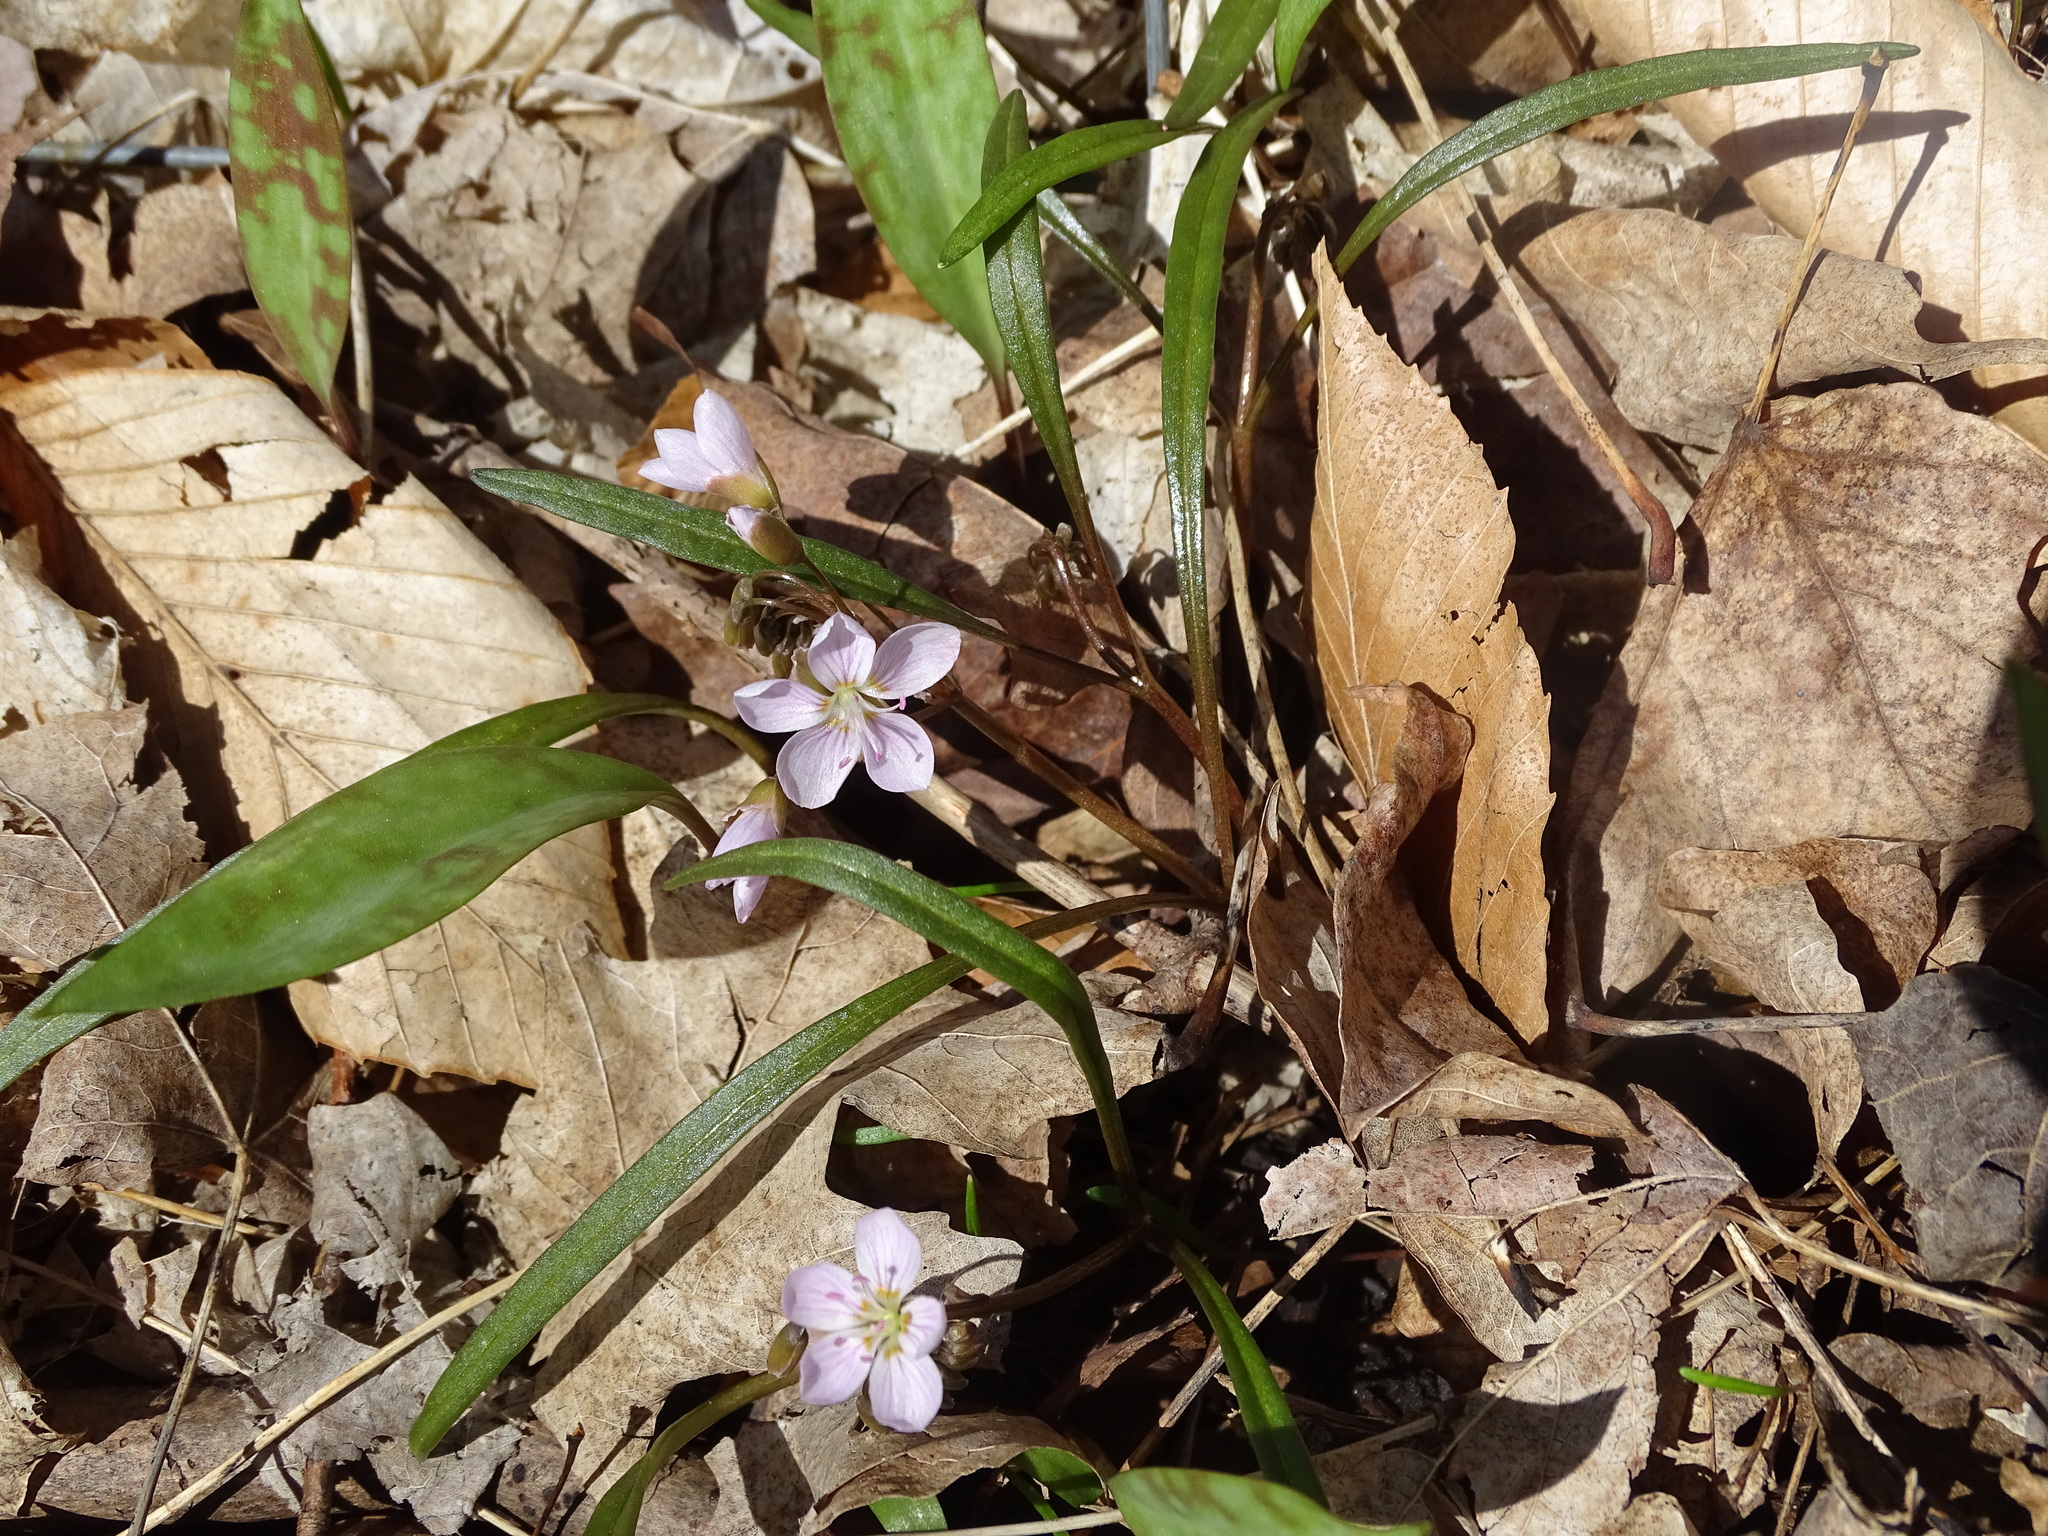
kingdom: Plantae
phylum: Tracheophyta
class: Magnoliopsida
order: Caryophyllales
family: Montiaceae
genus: Claytonia
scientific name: Claytonia virginica
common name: Virginia springbeauty
